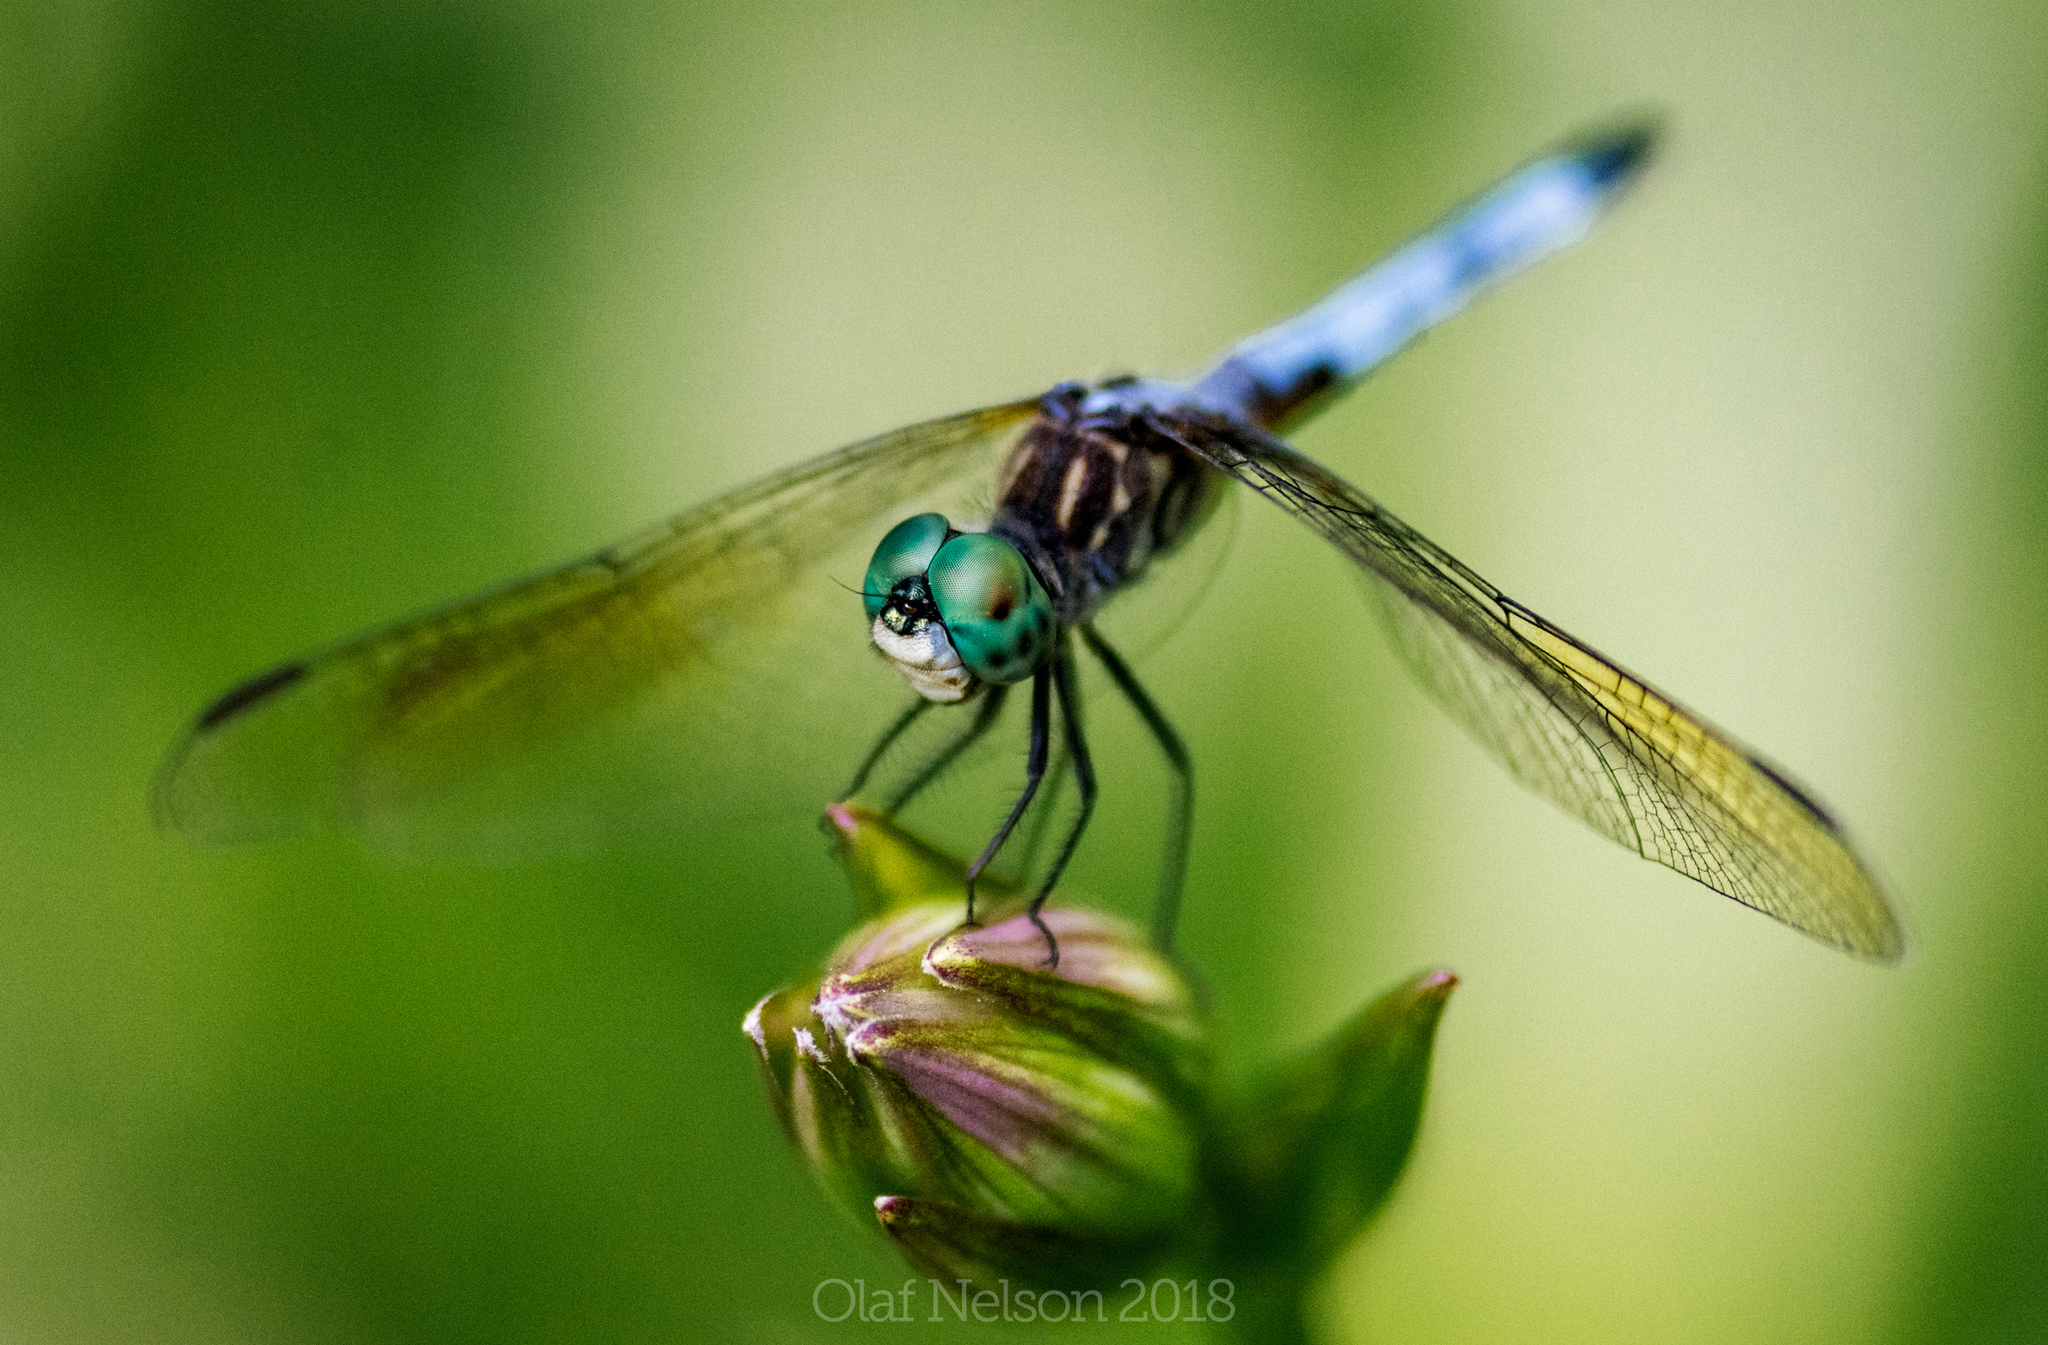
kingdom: Animalia
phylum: Arthropoda
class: Insecta
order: Odonata
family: Libellulidae
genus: Pachydiplax
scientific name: Pachydiplax longipennis
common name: Blue dasher
